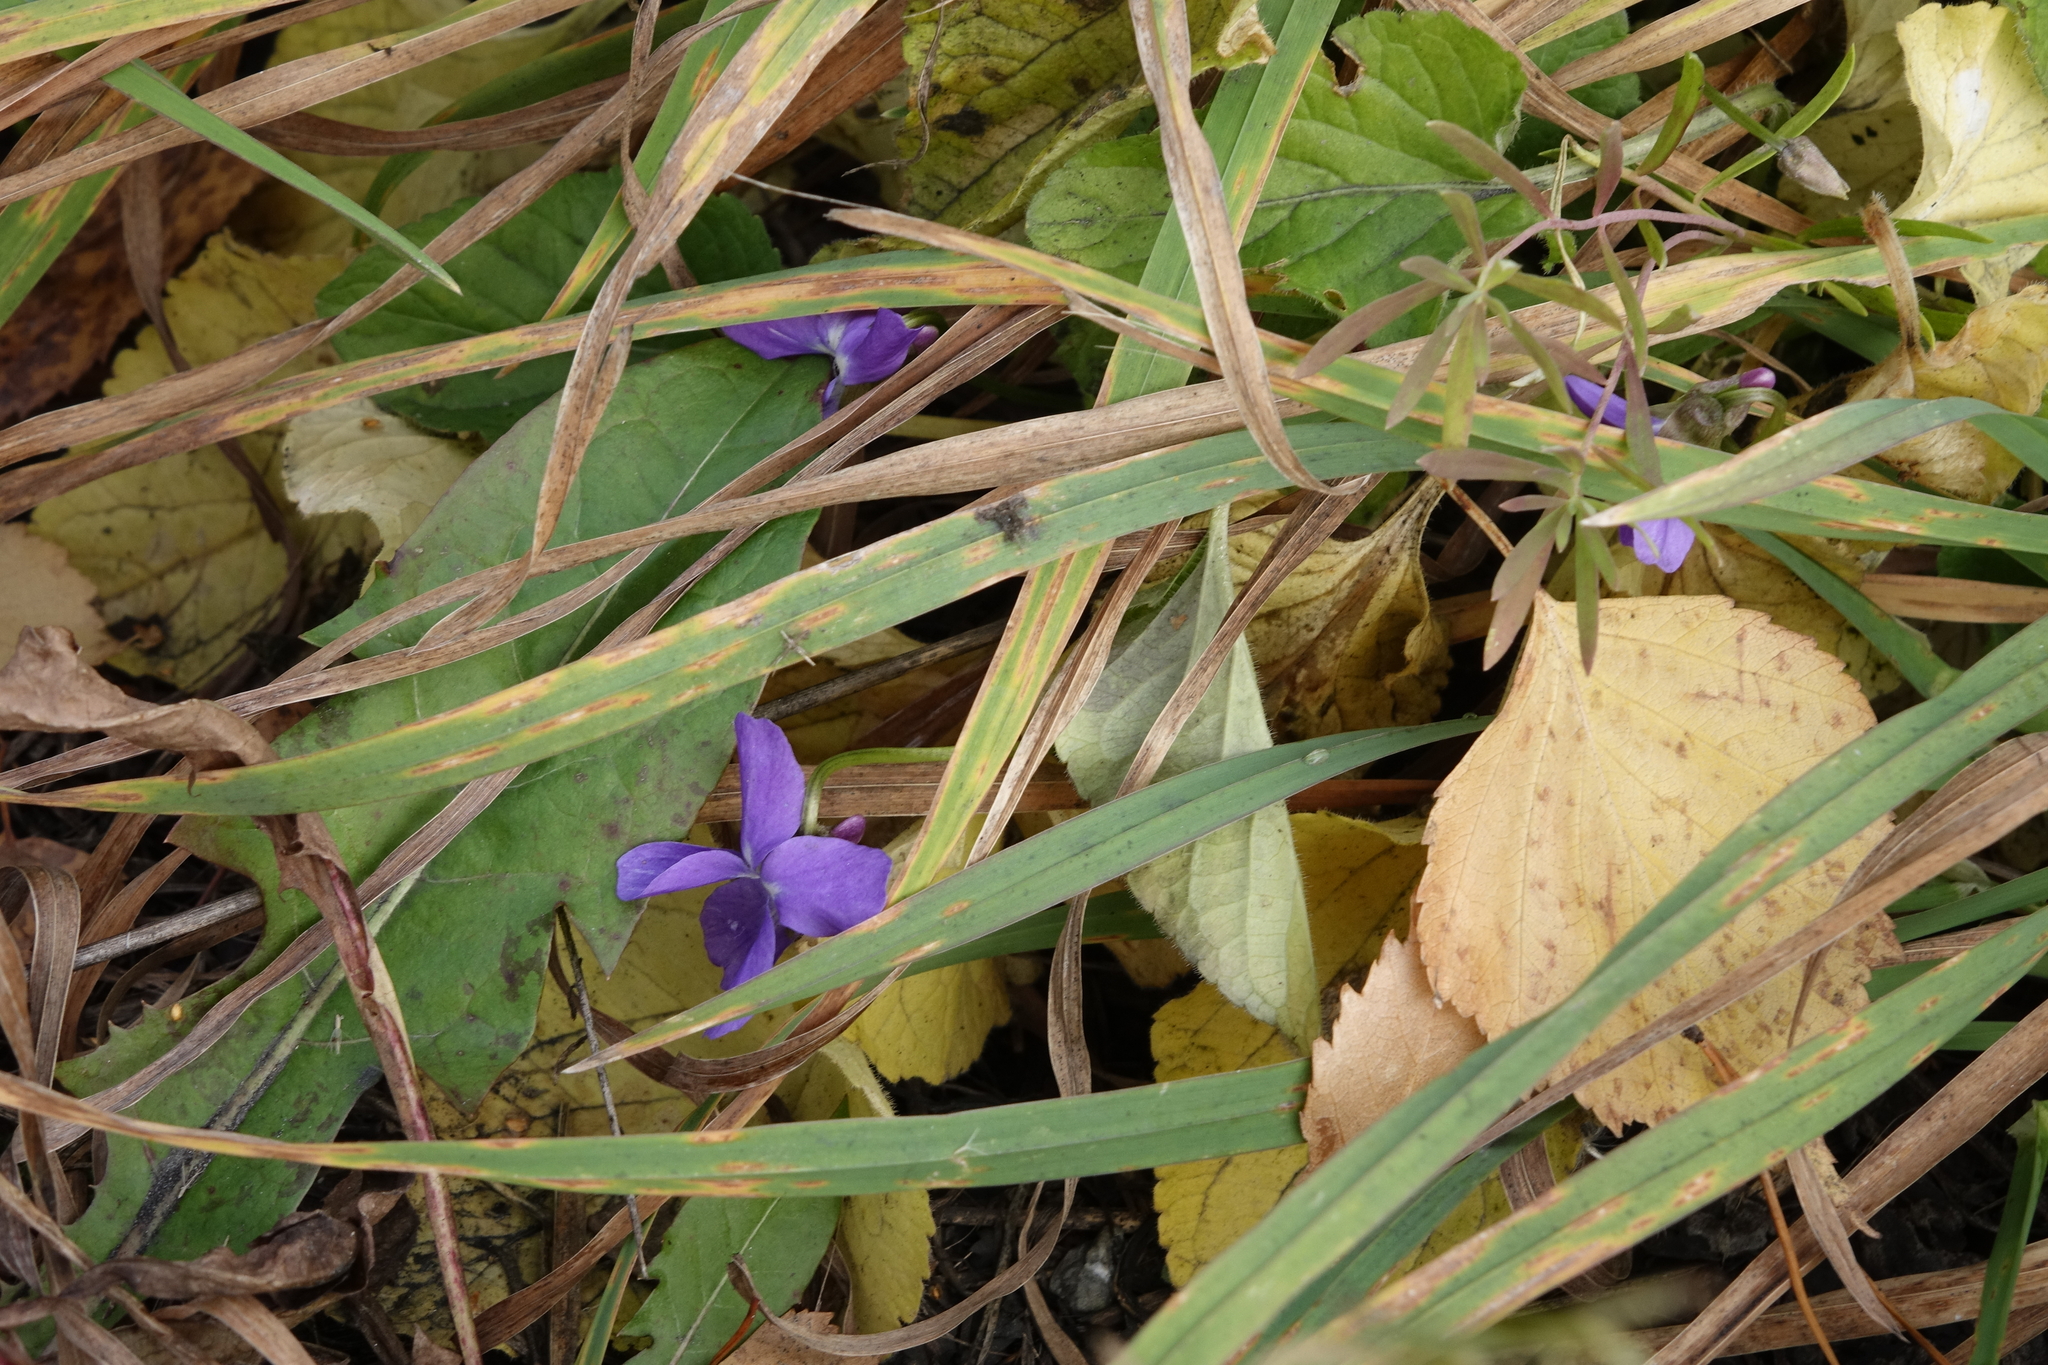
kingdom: Plantae
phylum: Tracheophyta
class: Magnoliopsida
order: Malpighiales
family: Violaceae
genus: Viola
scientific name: Viola hirta
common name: Hairy violet
